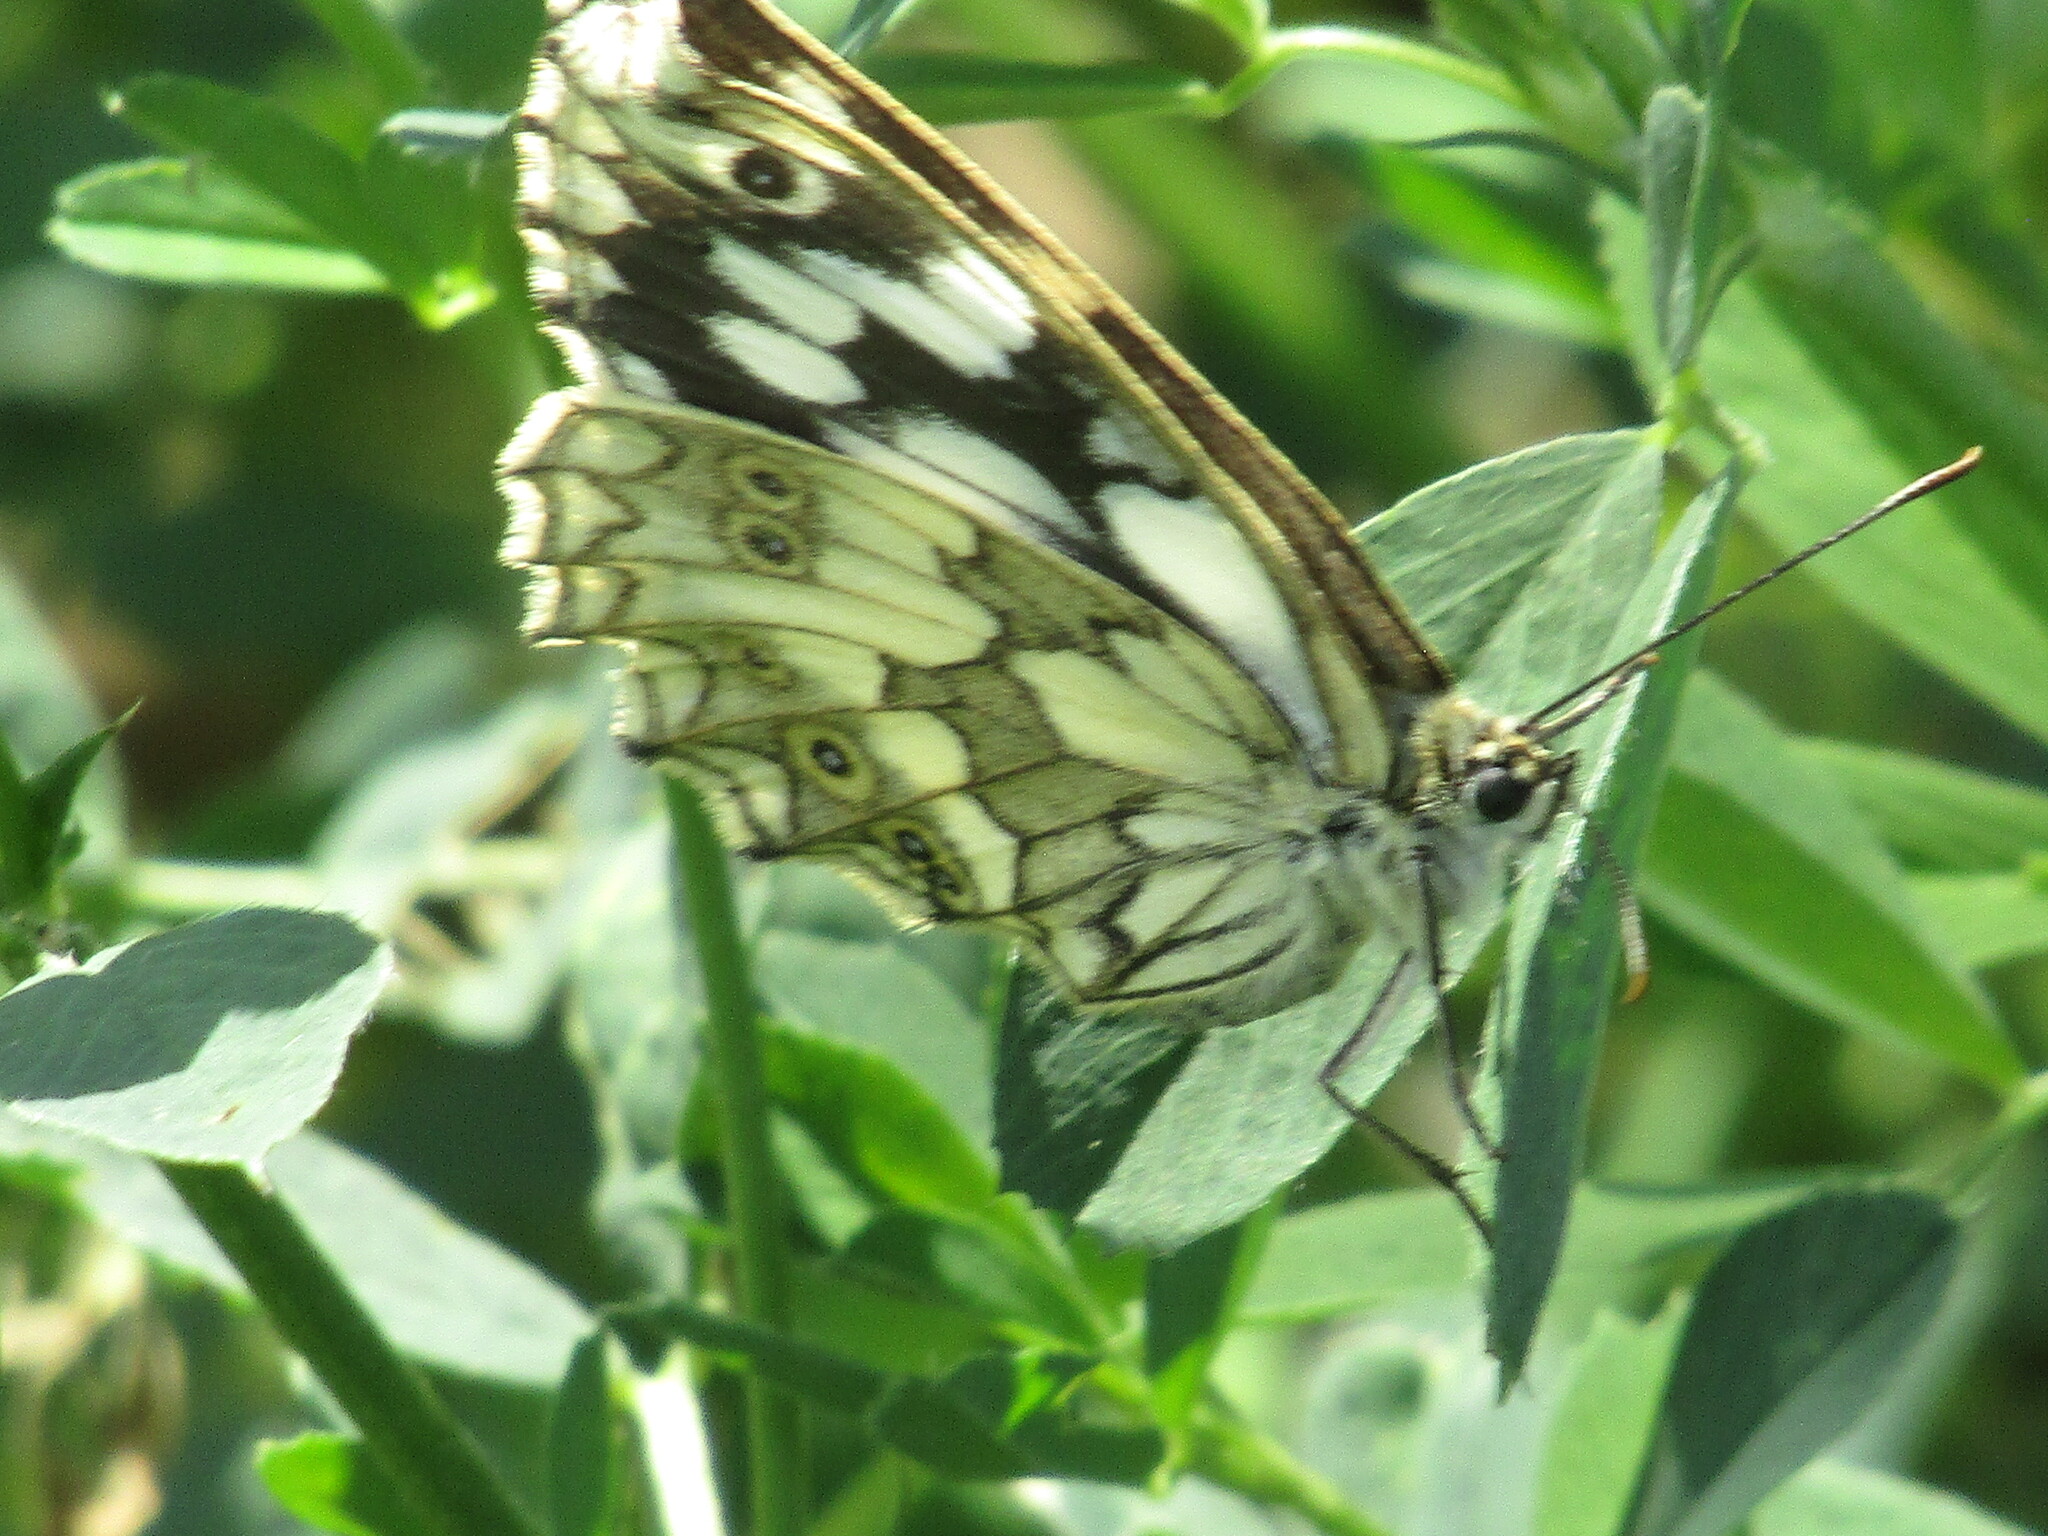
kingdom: Animalia
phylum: Arthropoda
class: Insecta
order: Lepidoptera
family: Nymphalidae
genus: Melanargia
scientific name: Melanargia galathea
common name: Marbled white
